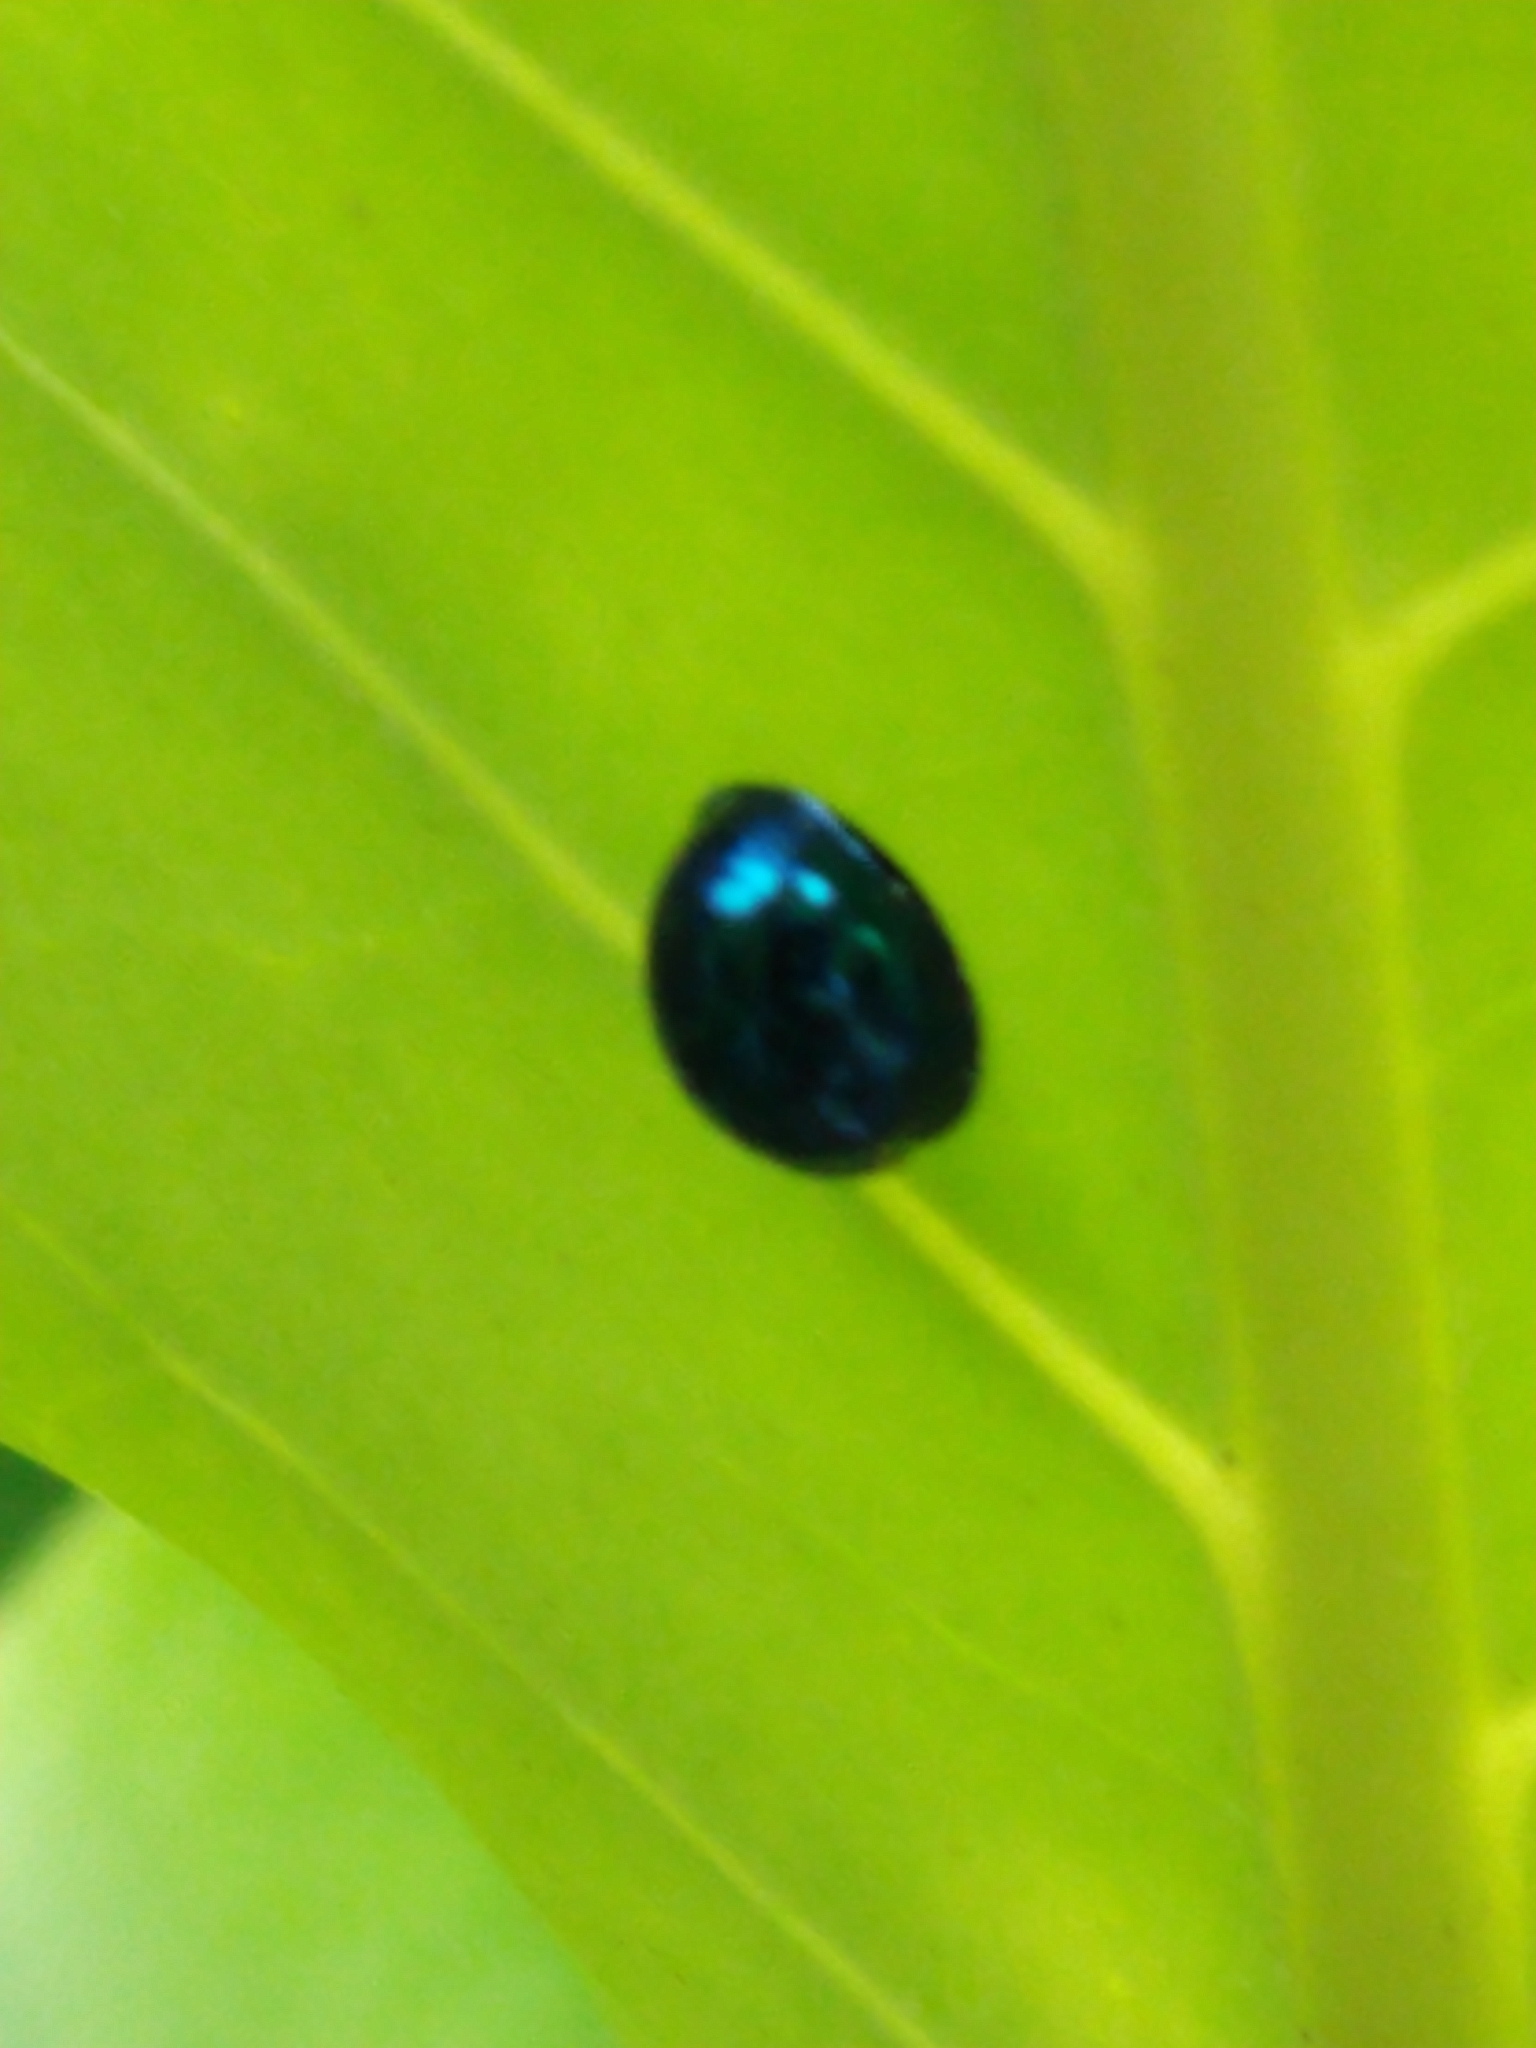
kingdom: Animalia
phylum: Arthropoda
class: Insecta
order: Coleoptera
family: Coccinellidae
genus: Halmus
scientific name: Halmus chalybeus
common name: Steel blue ladybird beetle
